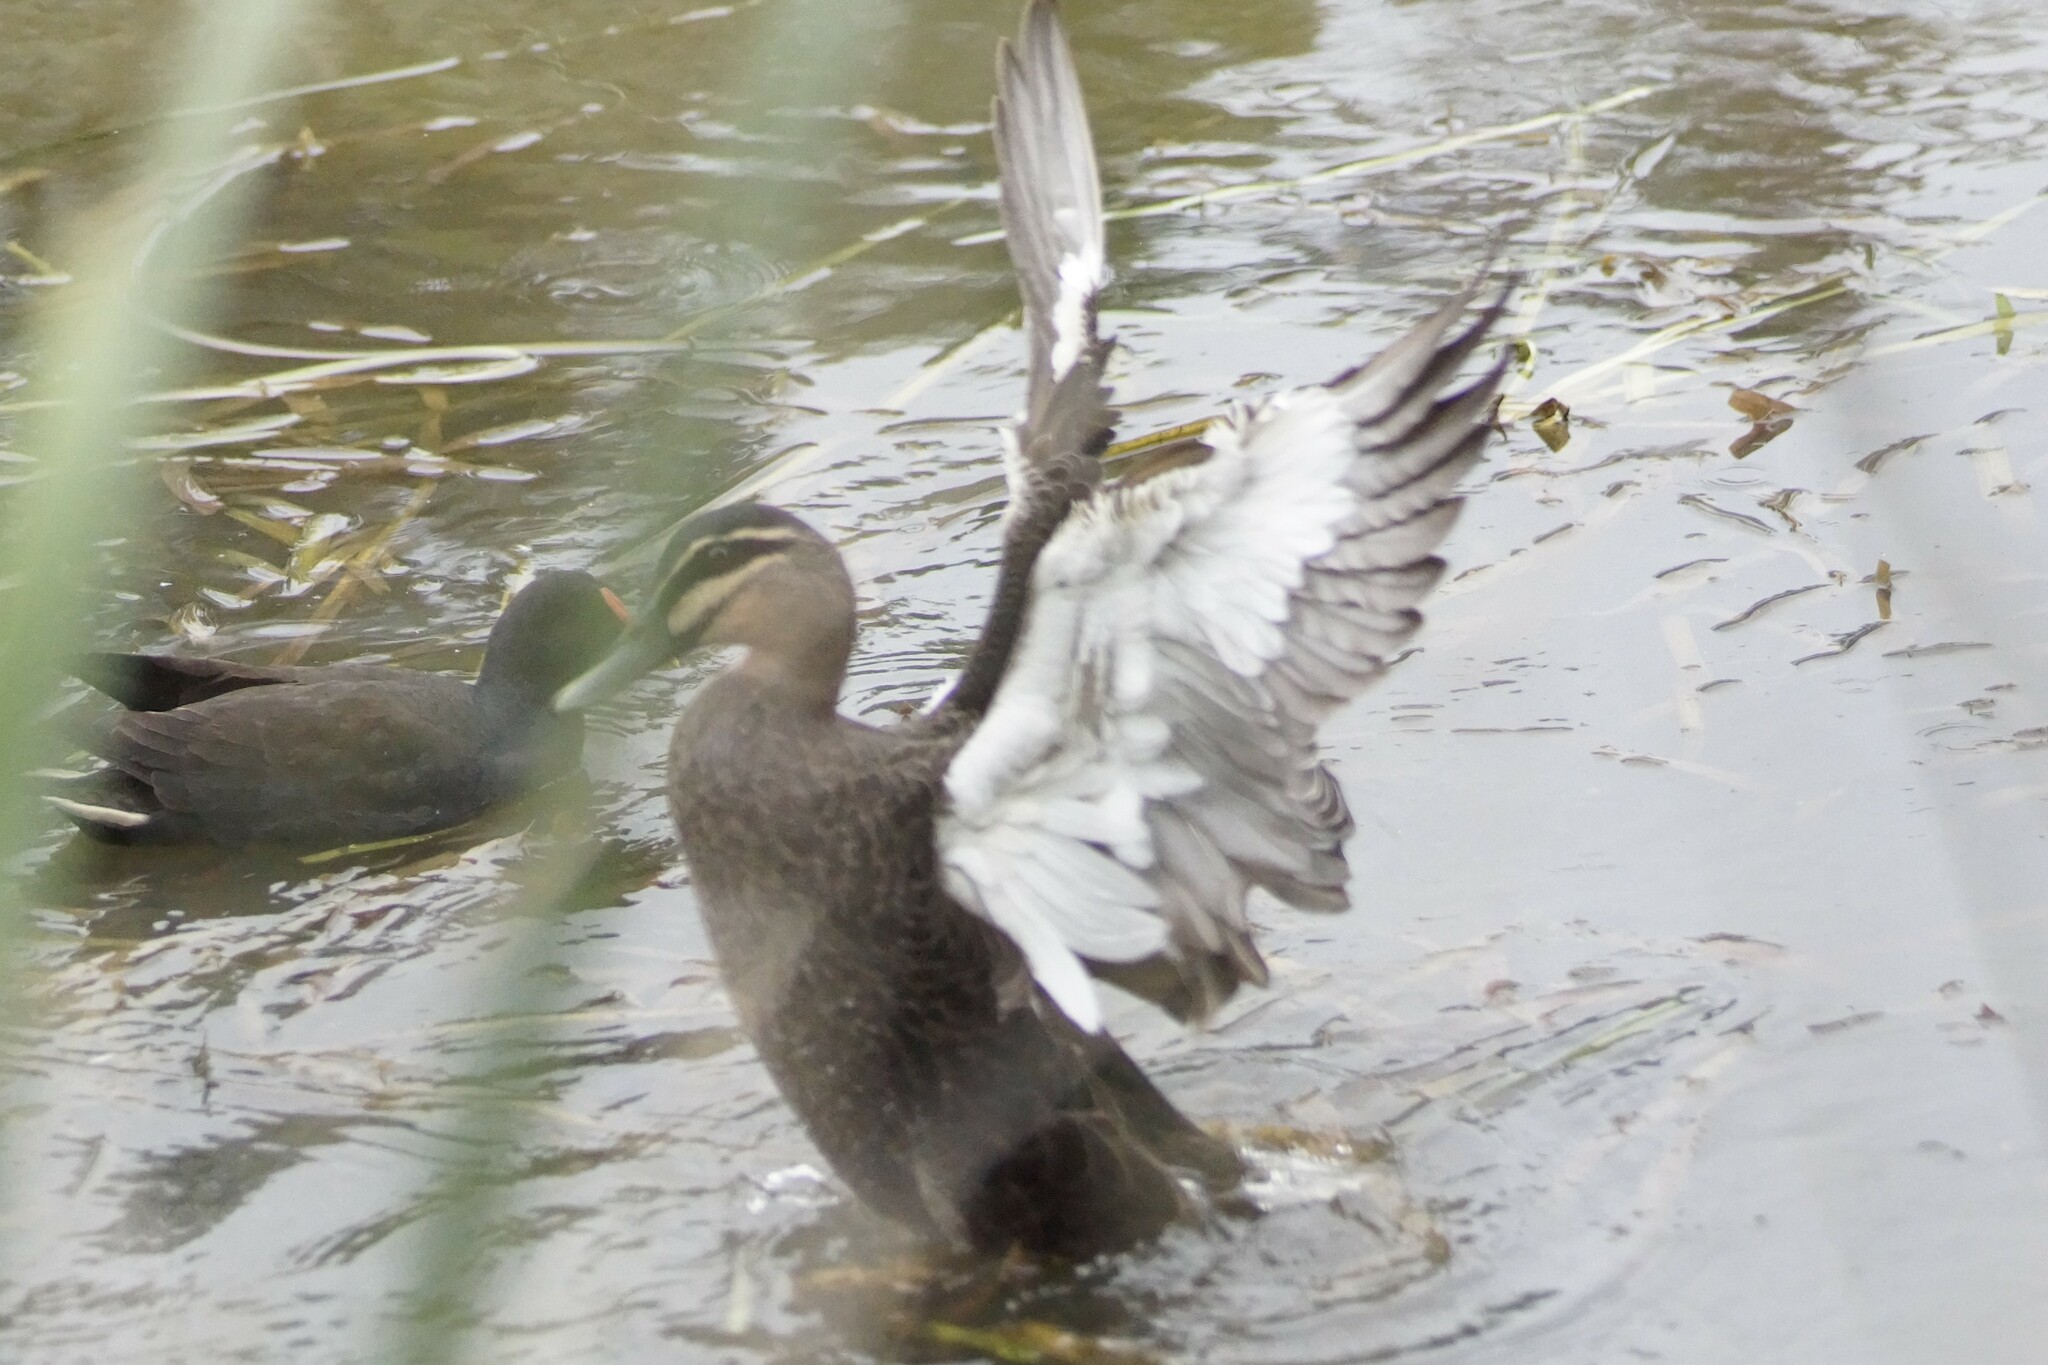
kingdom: Animalia
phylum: Chordata
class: Aves
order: Anseriformes
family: Anatidae
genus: Anas
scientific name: Anas superciliosa
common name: Pacific black duck
